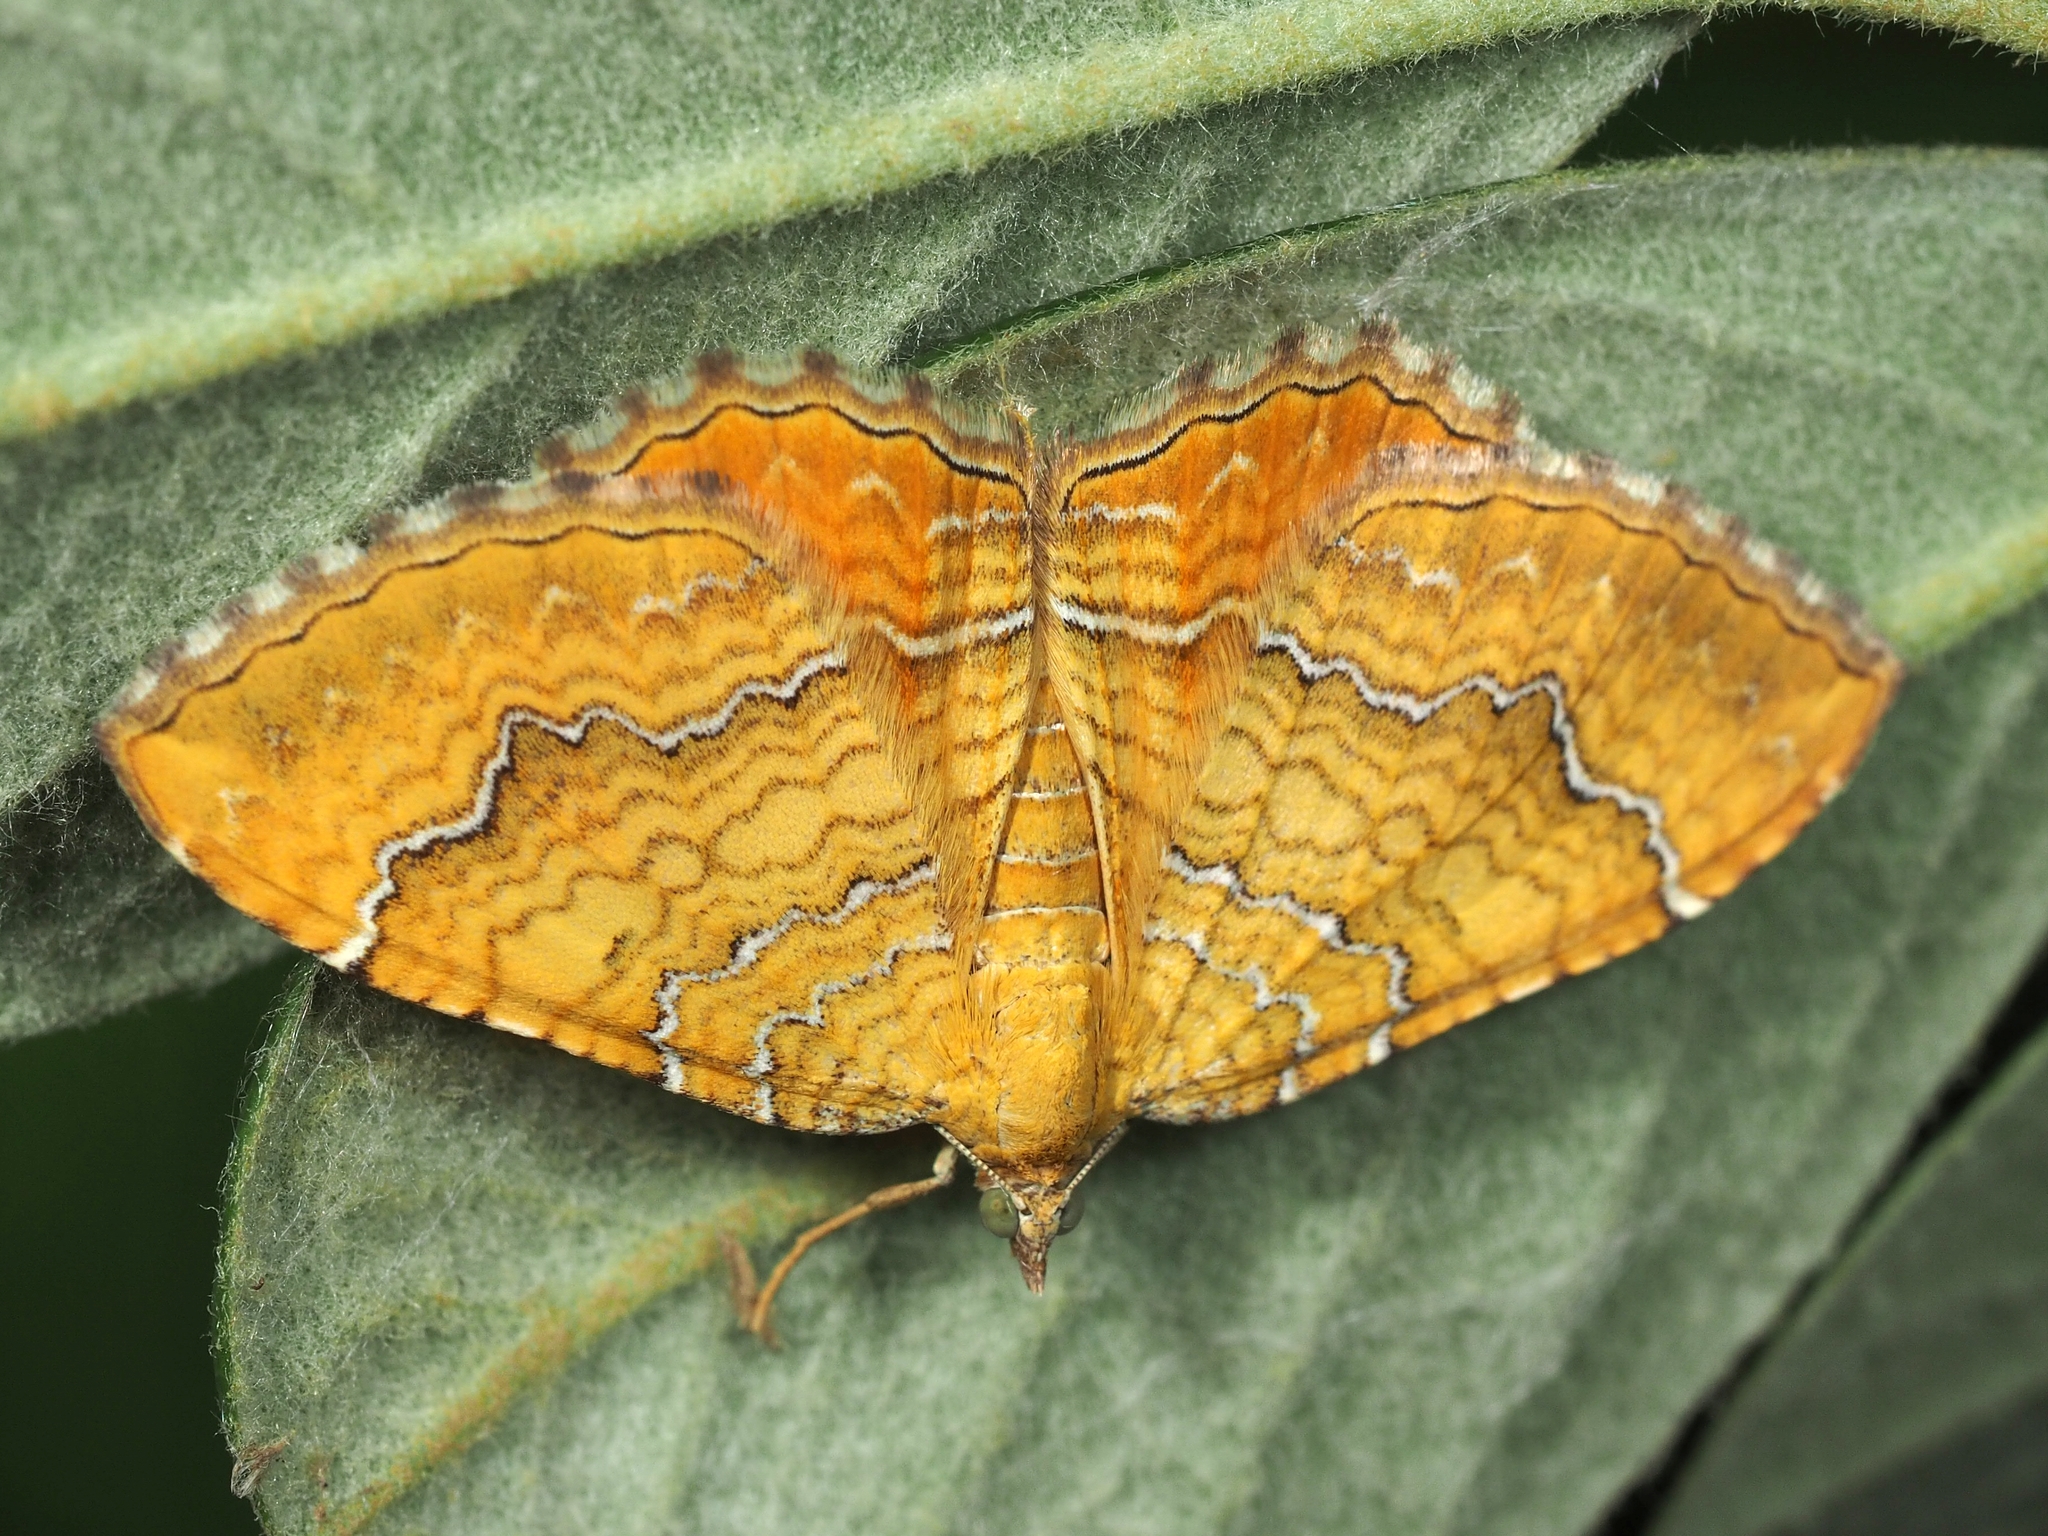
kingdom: Animalia
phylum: Arthropoda
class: Insecta
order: Lepidoptera
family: Geometridae
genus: Camptogramma
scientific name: Camptogramma bilineata
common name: Yellow shell
